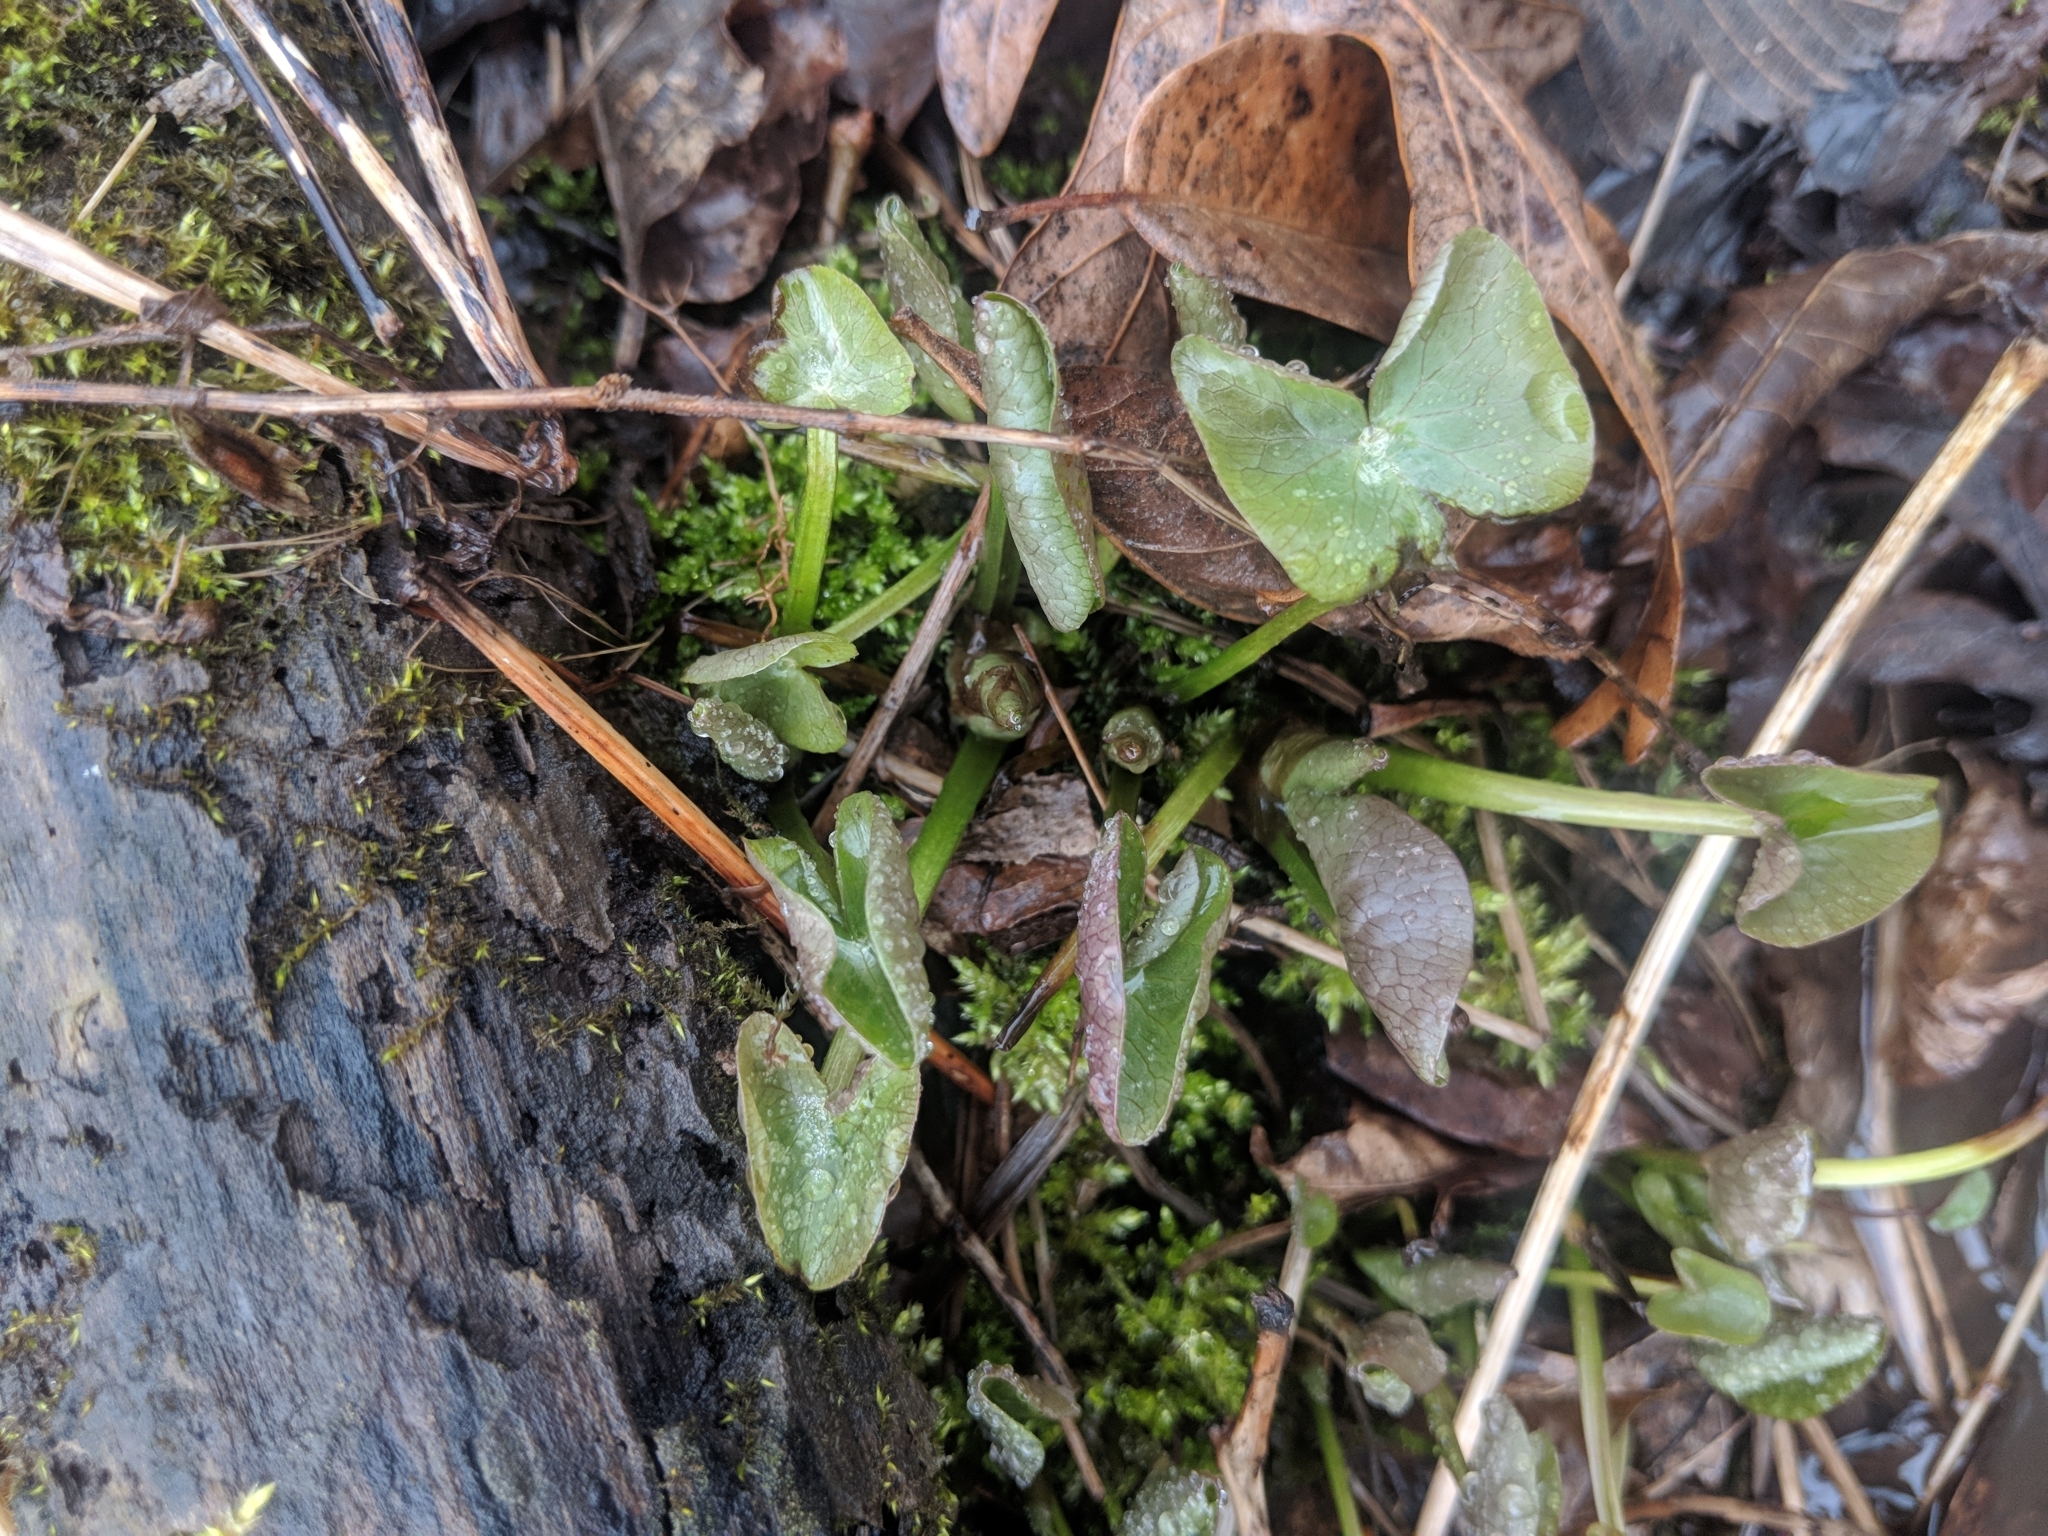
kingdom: Plantae
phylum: Tracheophyta
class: Magnoliopsida
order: Ranunculales
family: Ranunculaceae
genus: Caltha
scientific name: Caltha palustris
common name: Marsh marigold
